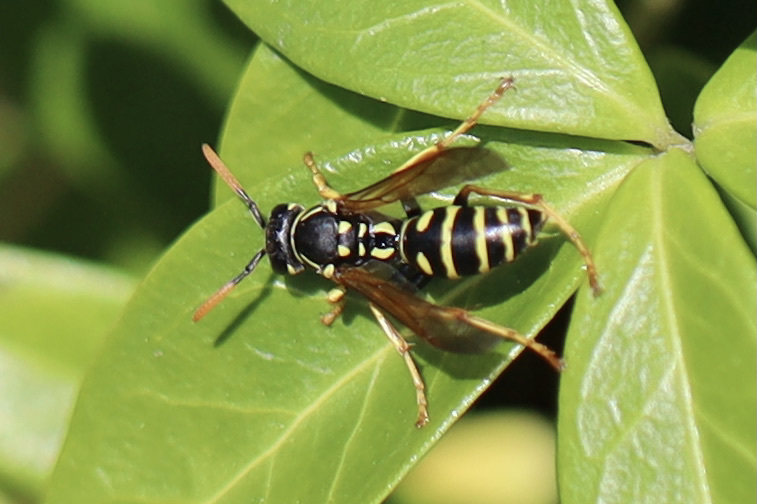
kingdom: Animalia
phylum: Arthropoda
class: Insecta
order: Hymenoptera
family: Eumenidae
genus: Polistes
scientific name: Polistes dominula
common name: Paper wasp
